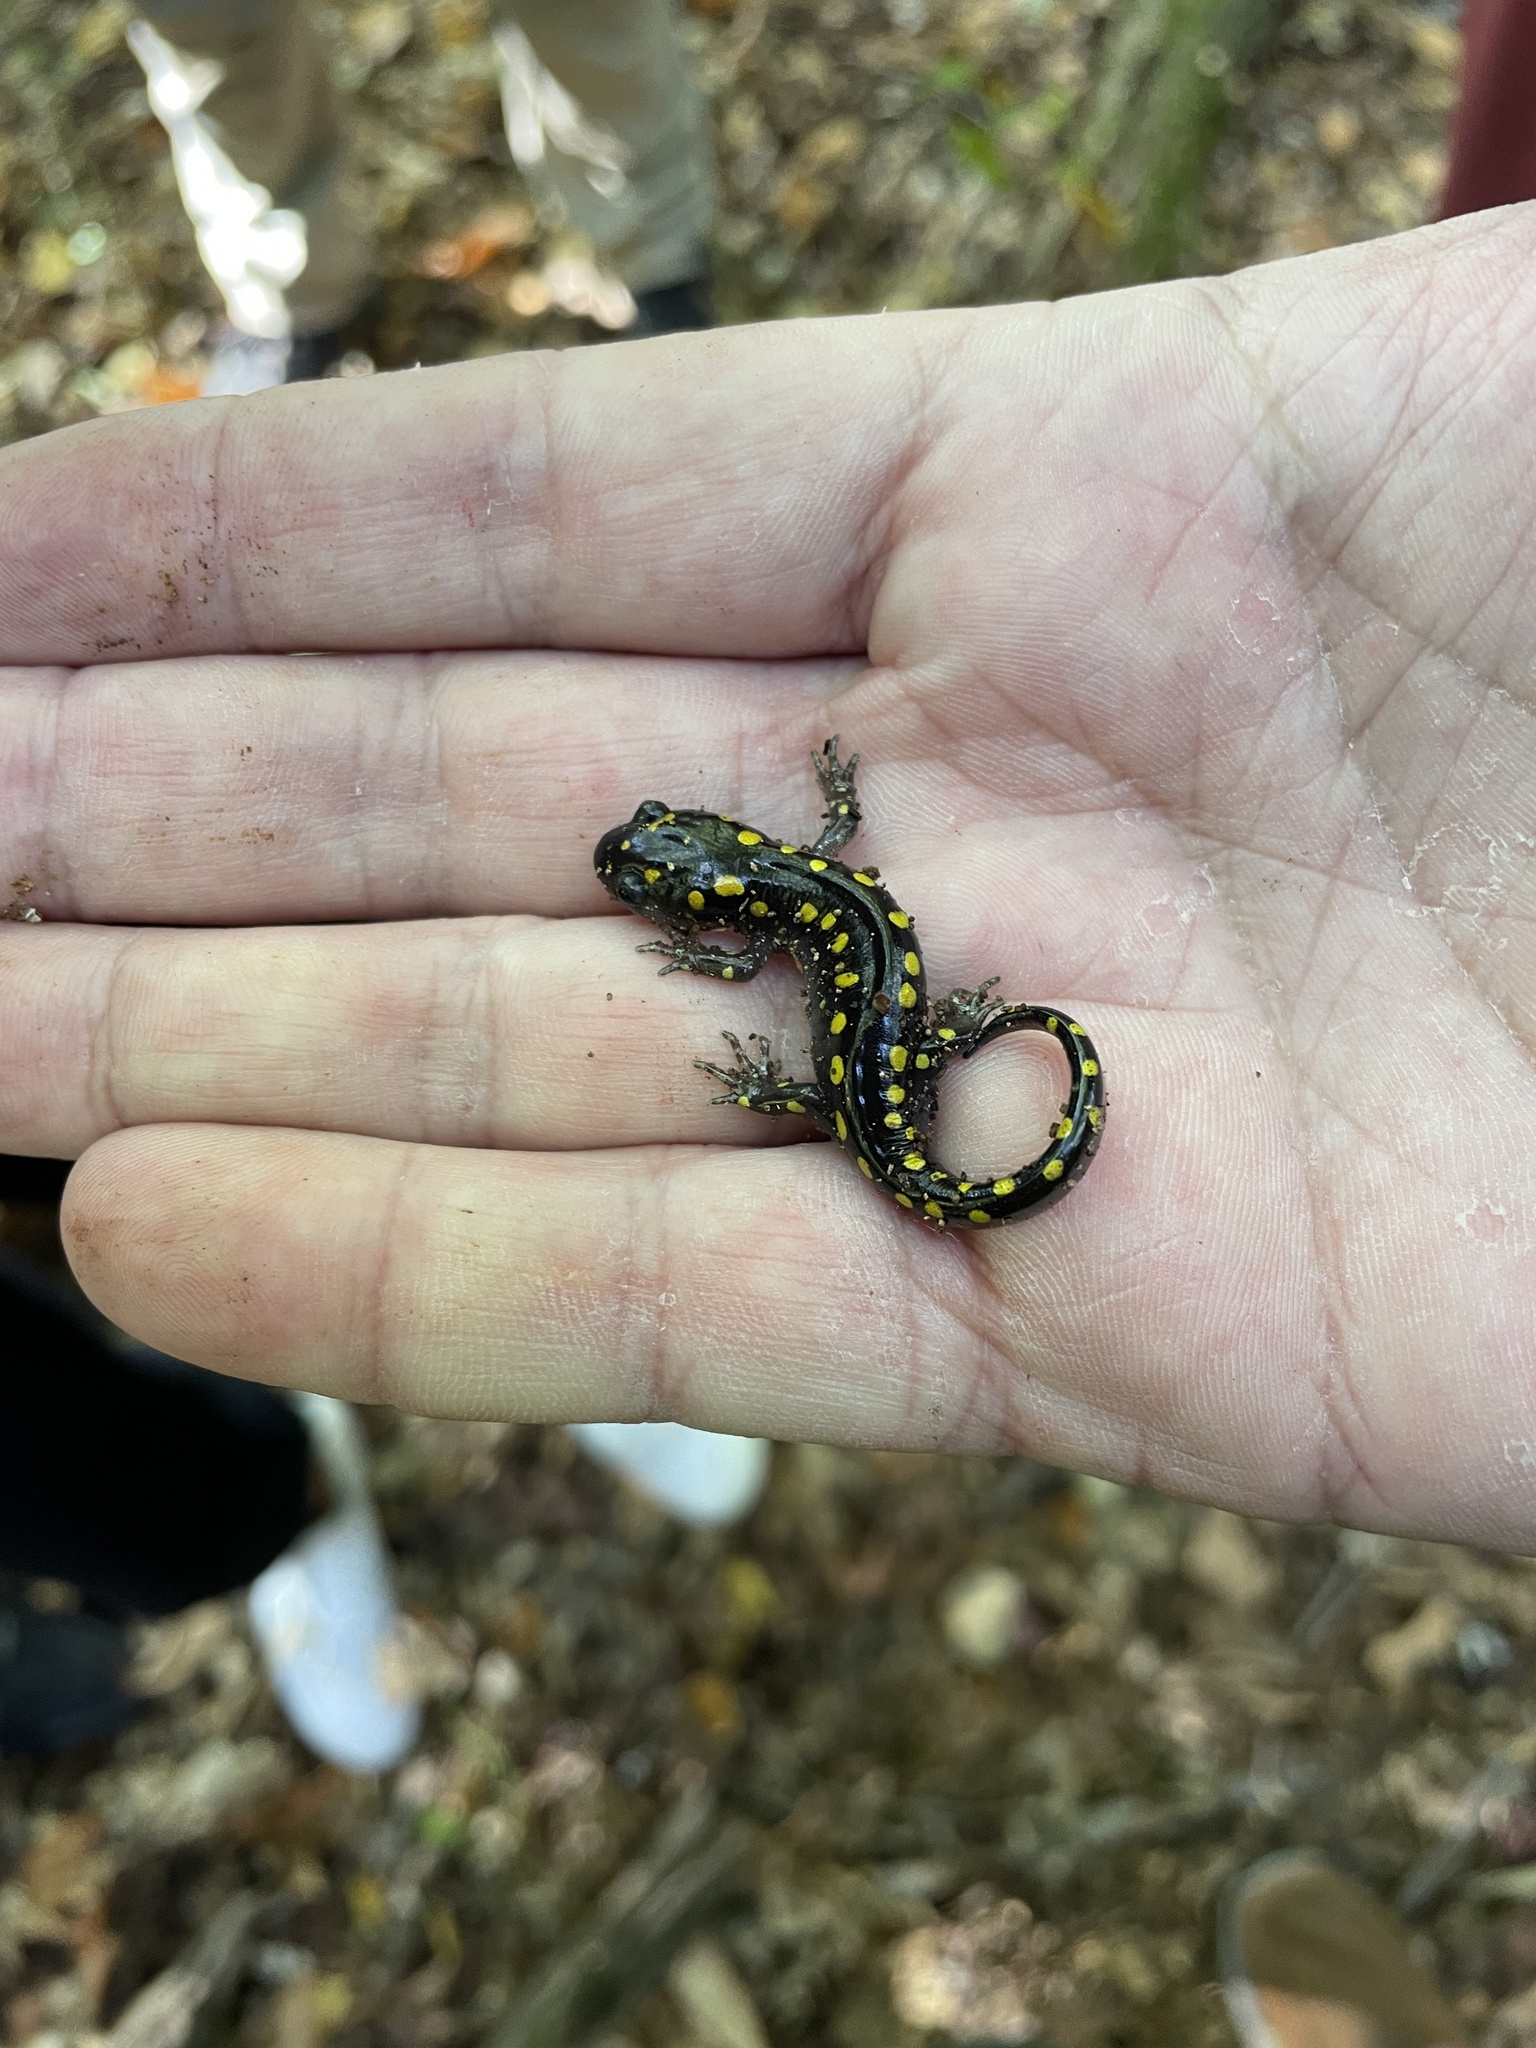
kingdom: Animalia
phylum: Chordata
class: Amphibia
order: Caudata
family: Ambystomatidae
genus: Ambystoma
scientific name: Ambystoma maculatum
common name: Spotted salamander
